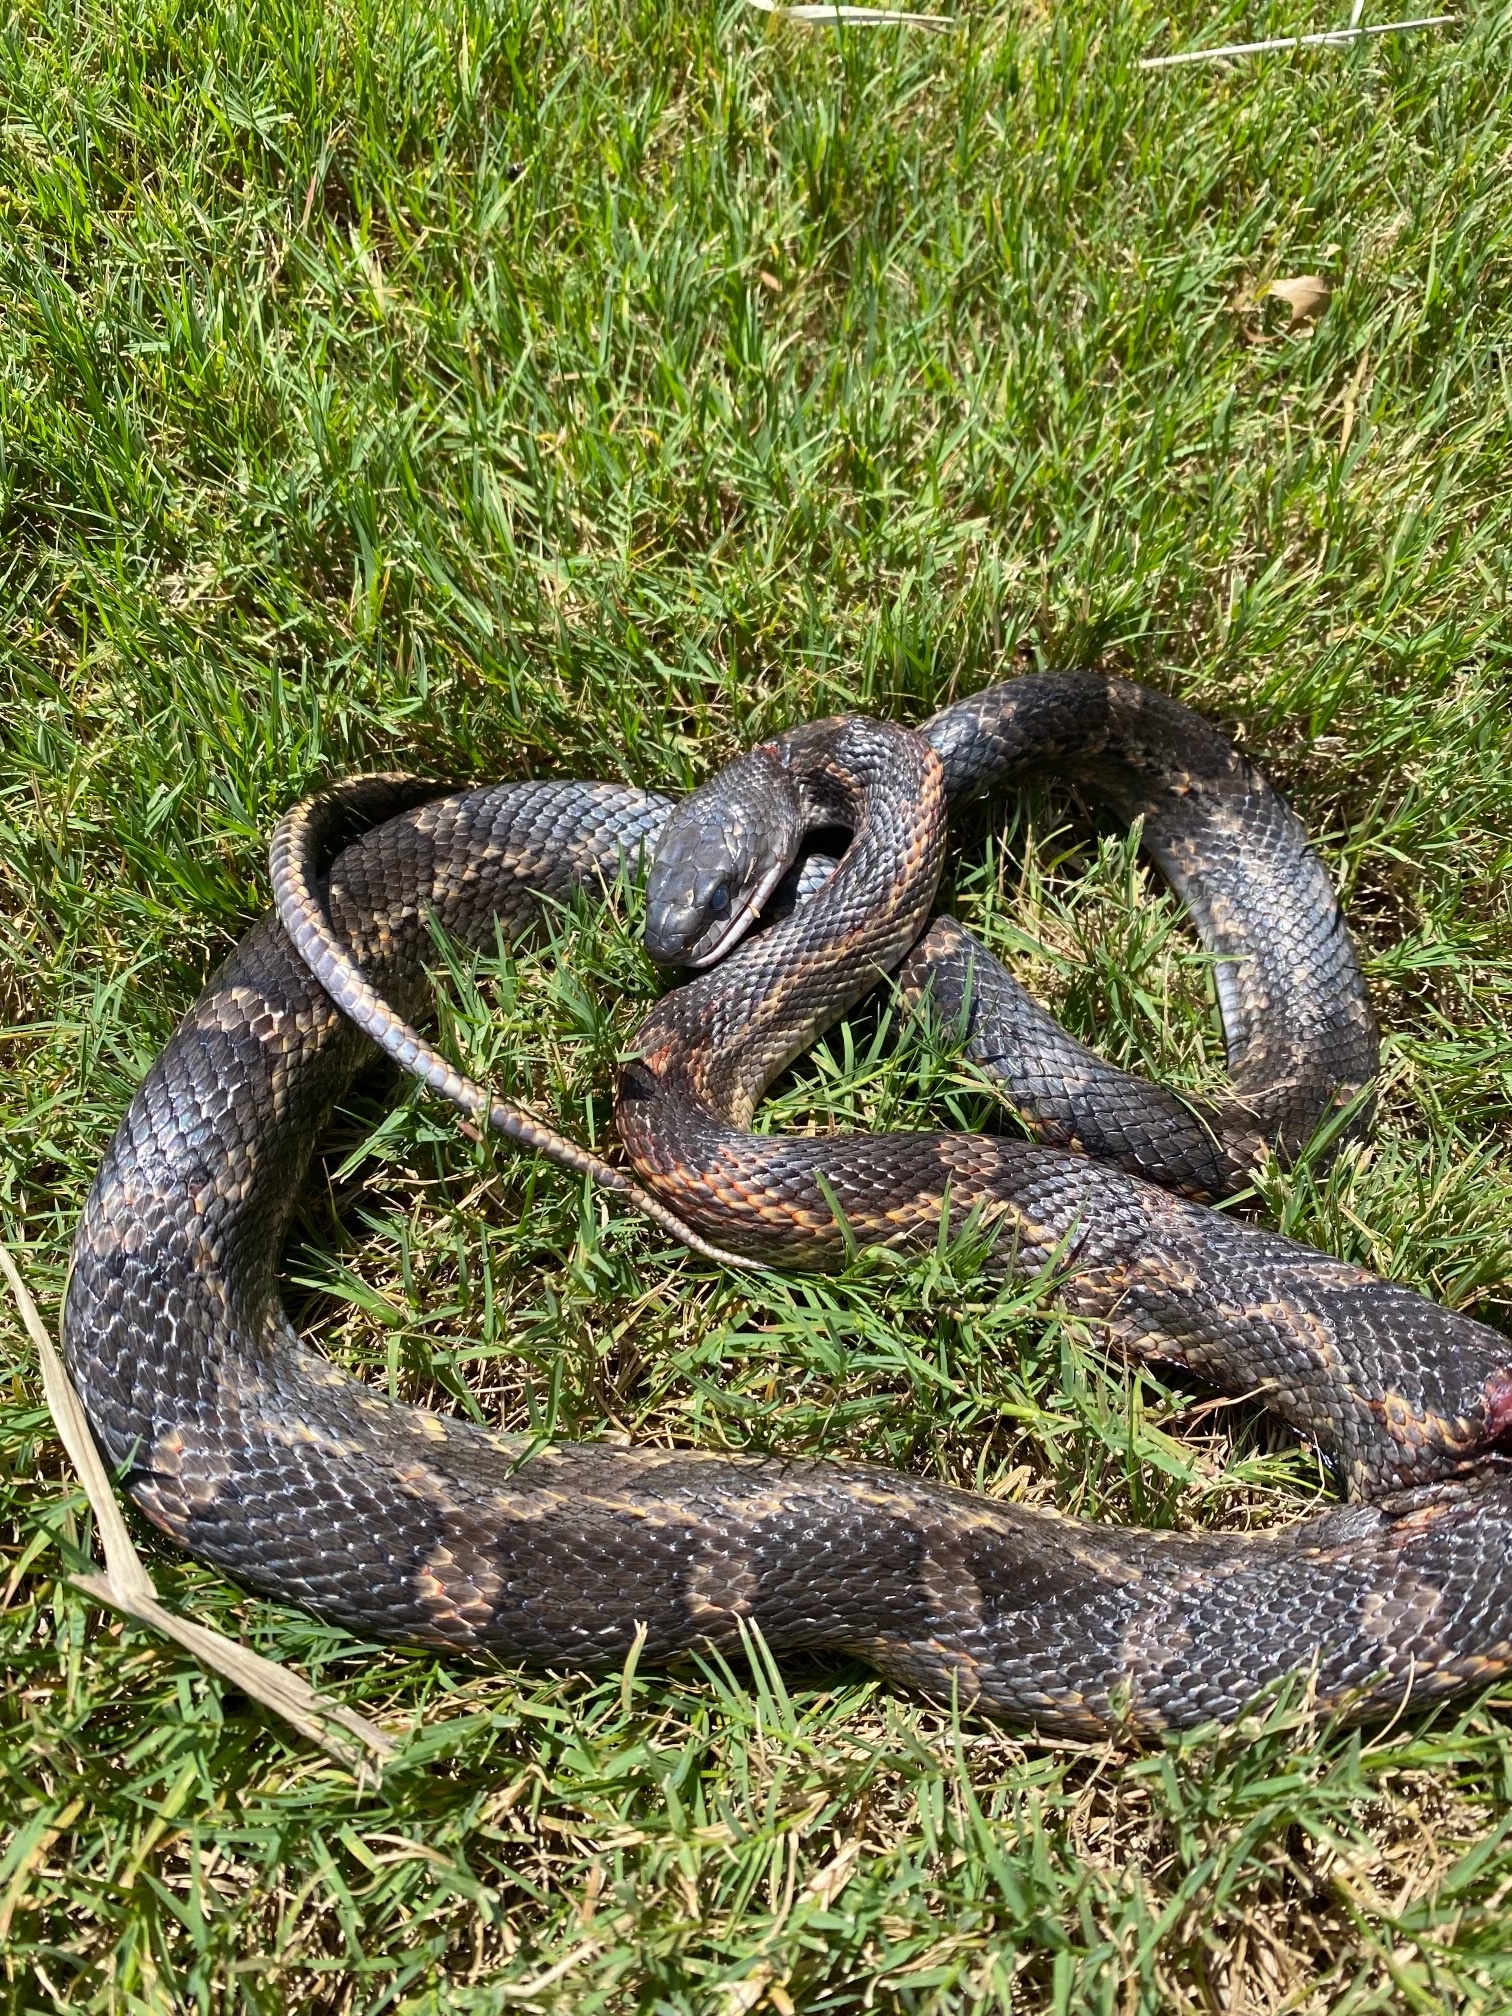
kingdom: Animalia
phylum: Chordata
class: Squamata
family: Colubridae
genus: Pantherophis
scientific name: Pantherophis obsoletus
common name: Black rat snake
